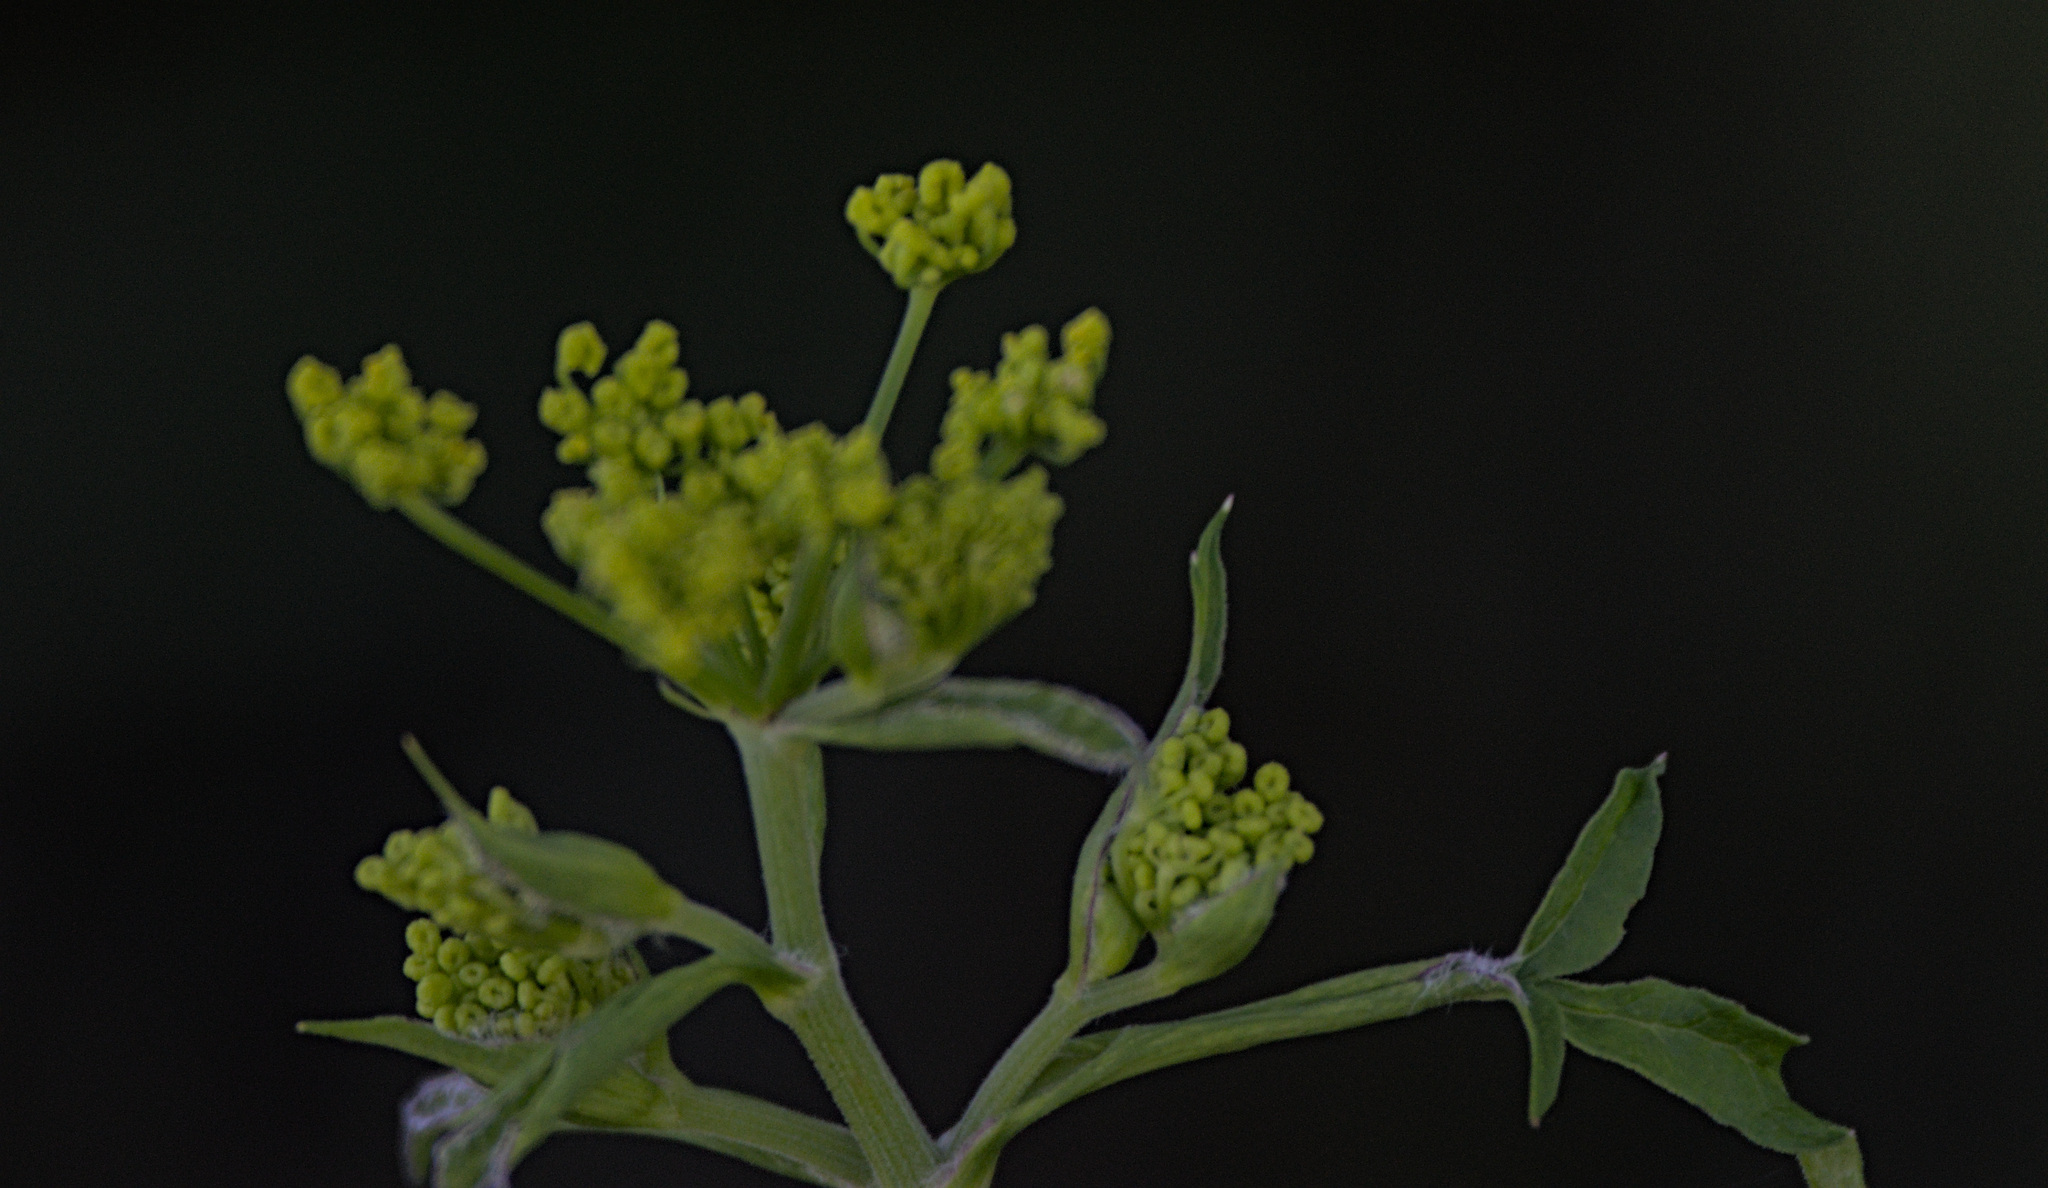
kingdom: Plantae
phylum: Tracheophyta
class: Magnoliopsida
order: Apiales
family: Apiaceae
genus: Pastinaca
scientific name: Pastinaca sativa
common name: Wild parsnip
